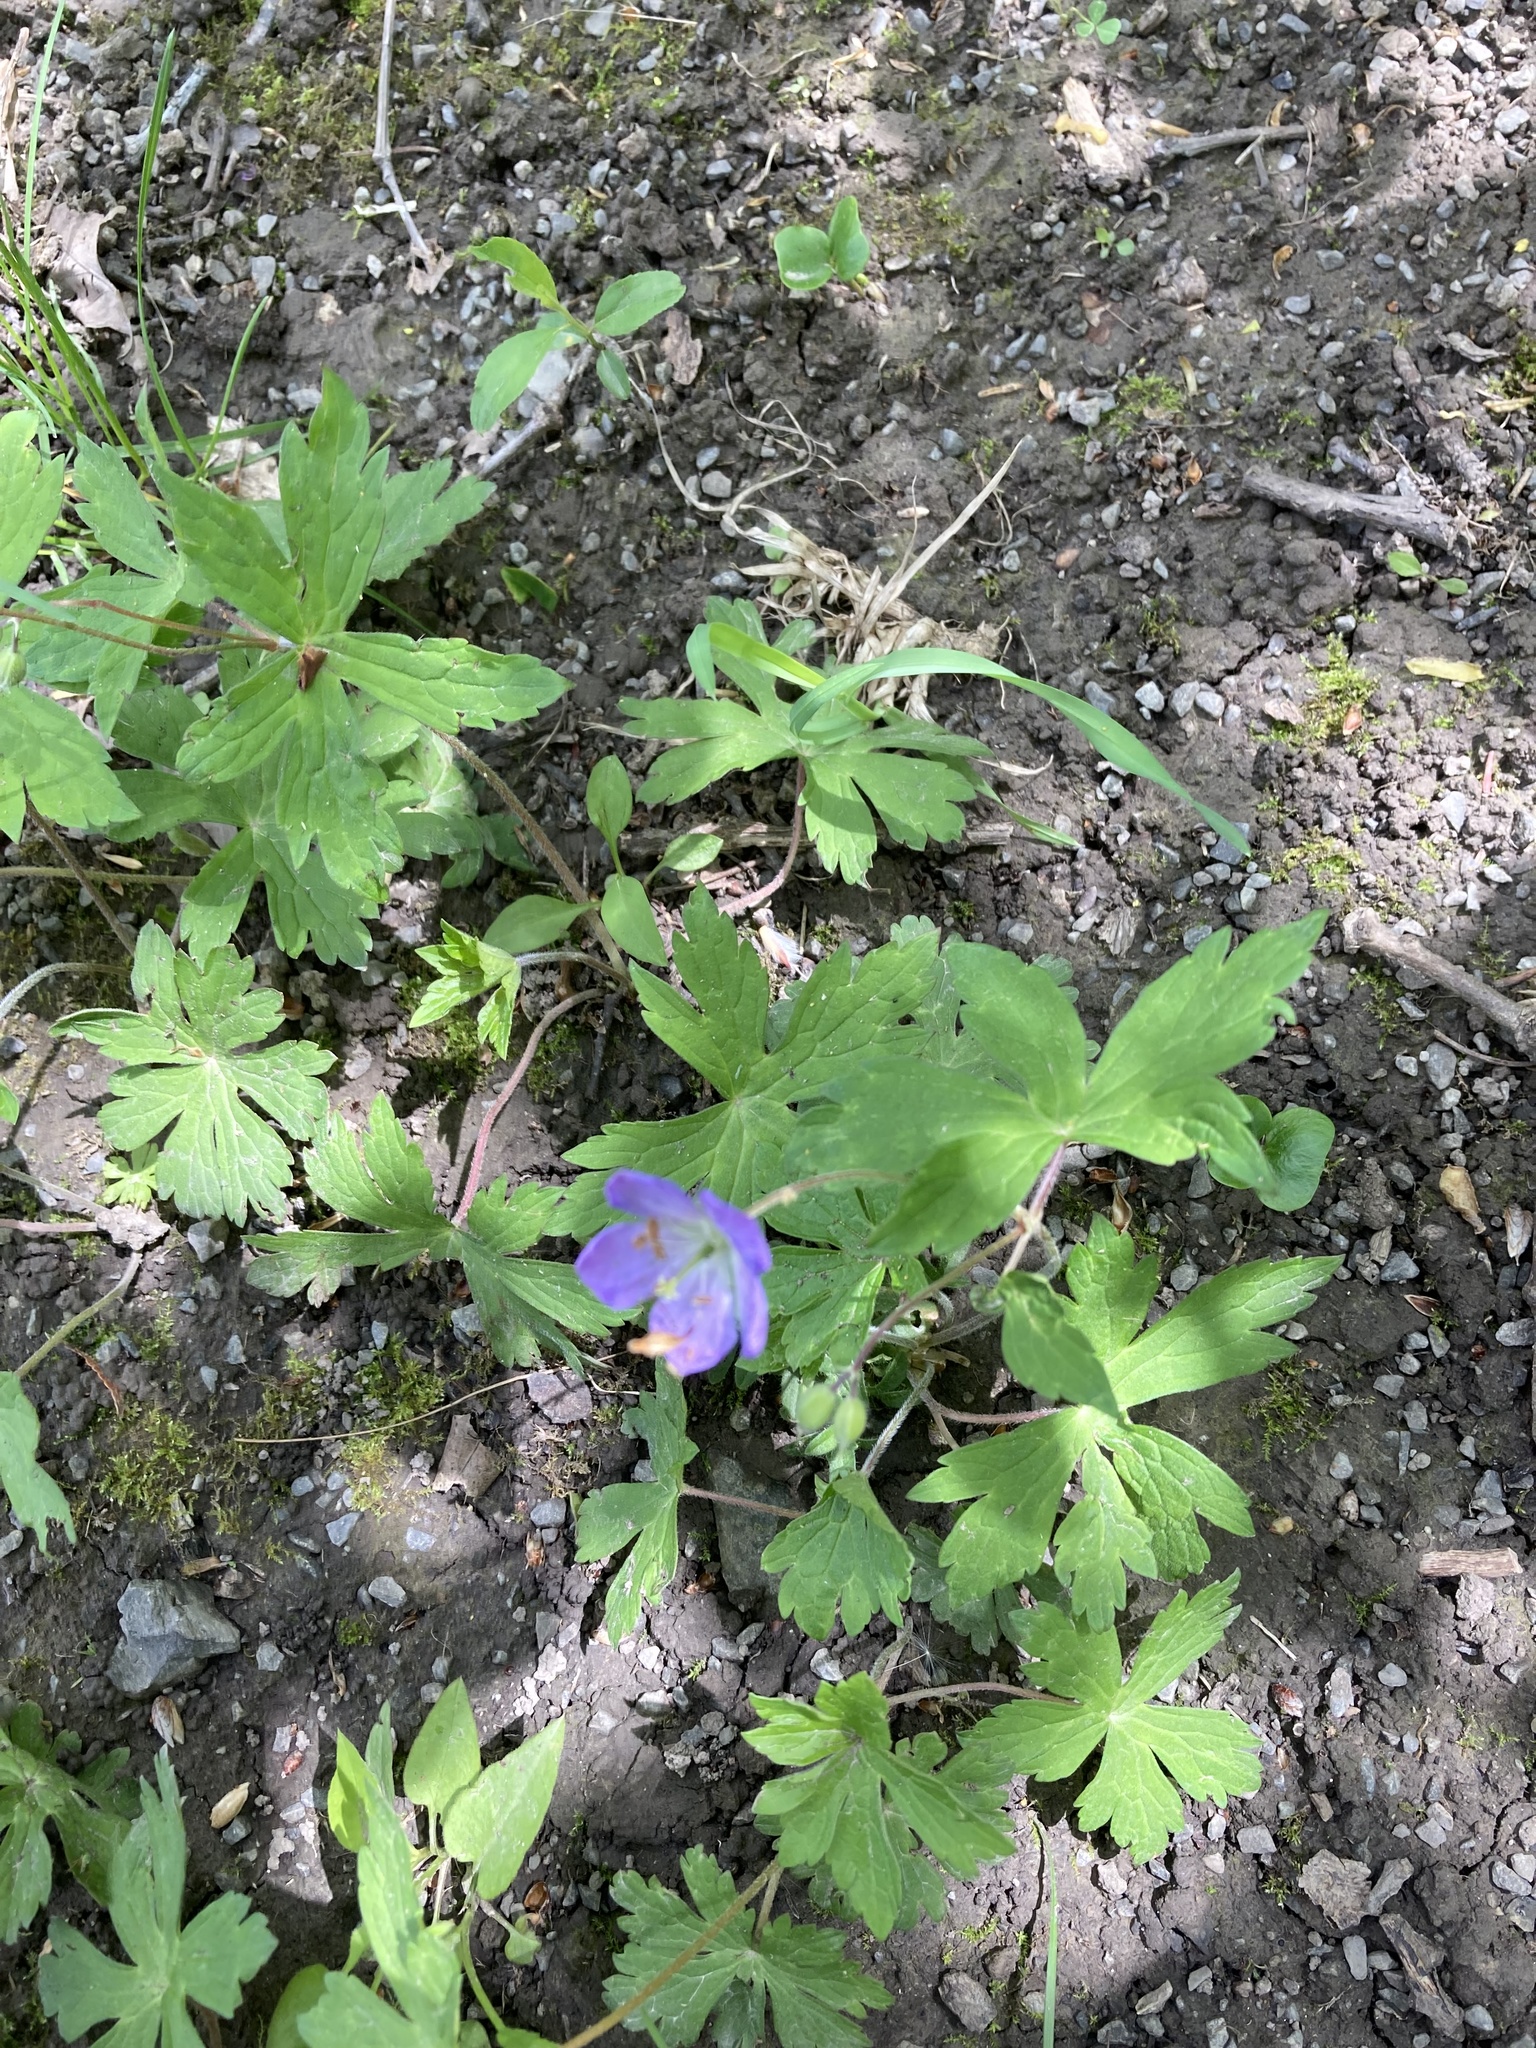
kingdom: Plantae
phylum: Tracheophyta
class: Magnoliopsida
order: Geraniales
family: Geraniaceae
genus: Geranium
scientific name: Geranium maculatum
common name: Spotted geranium
